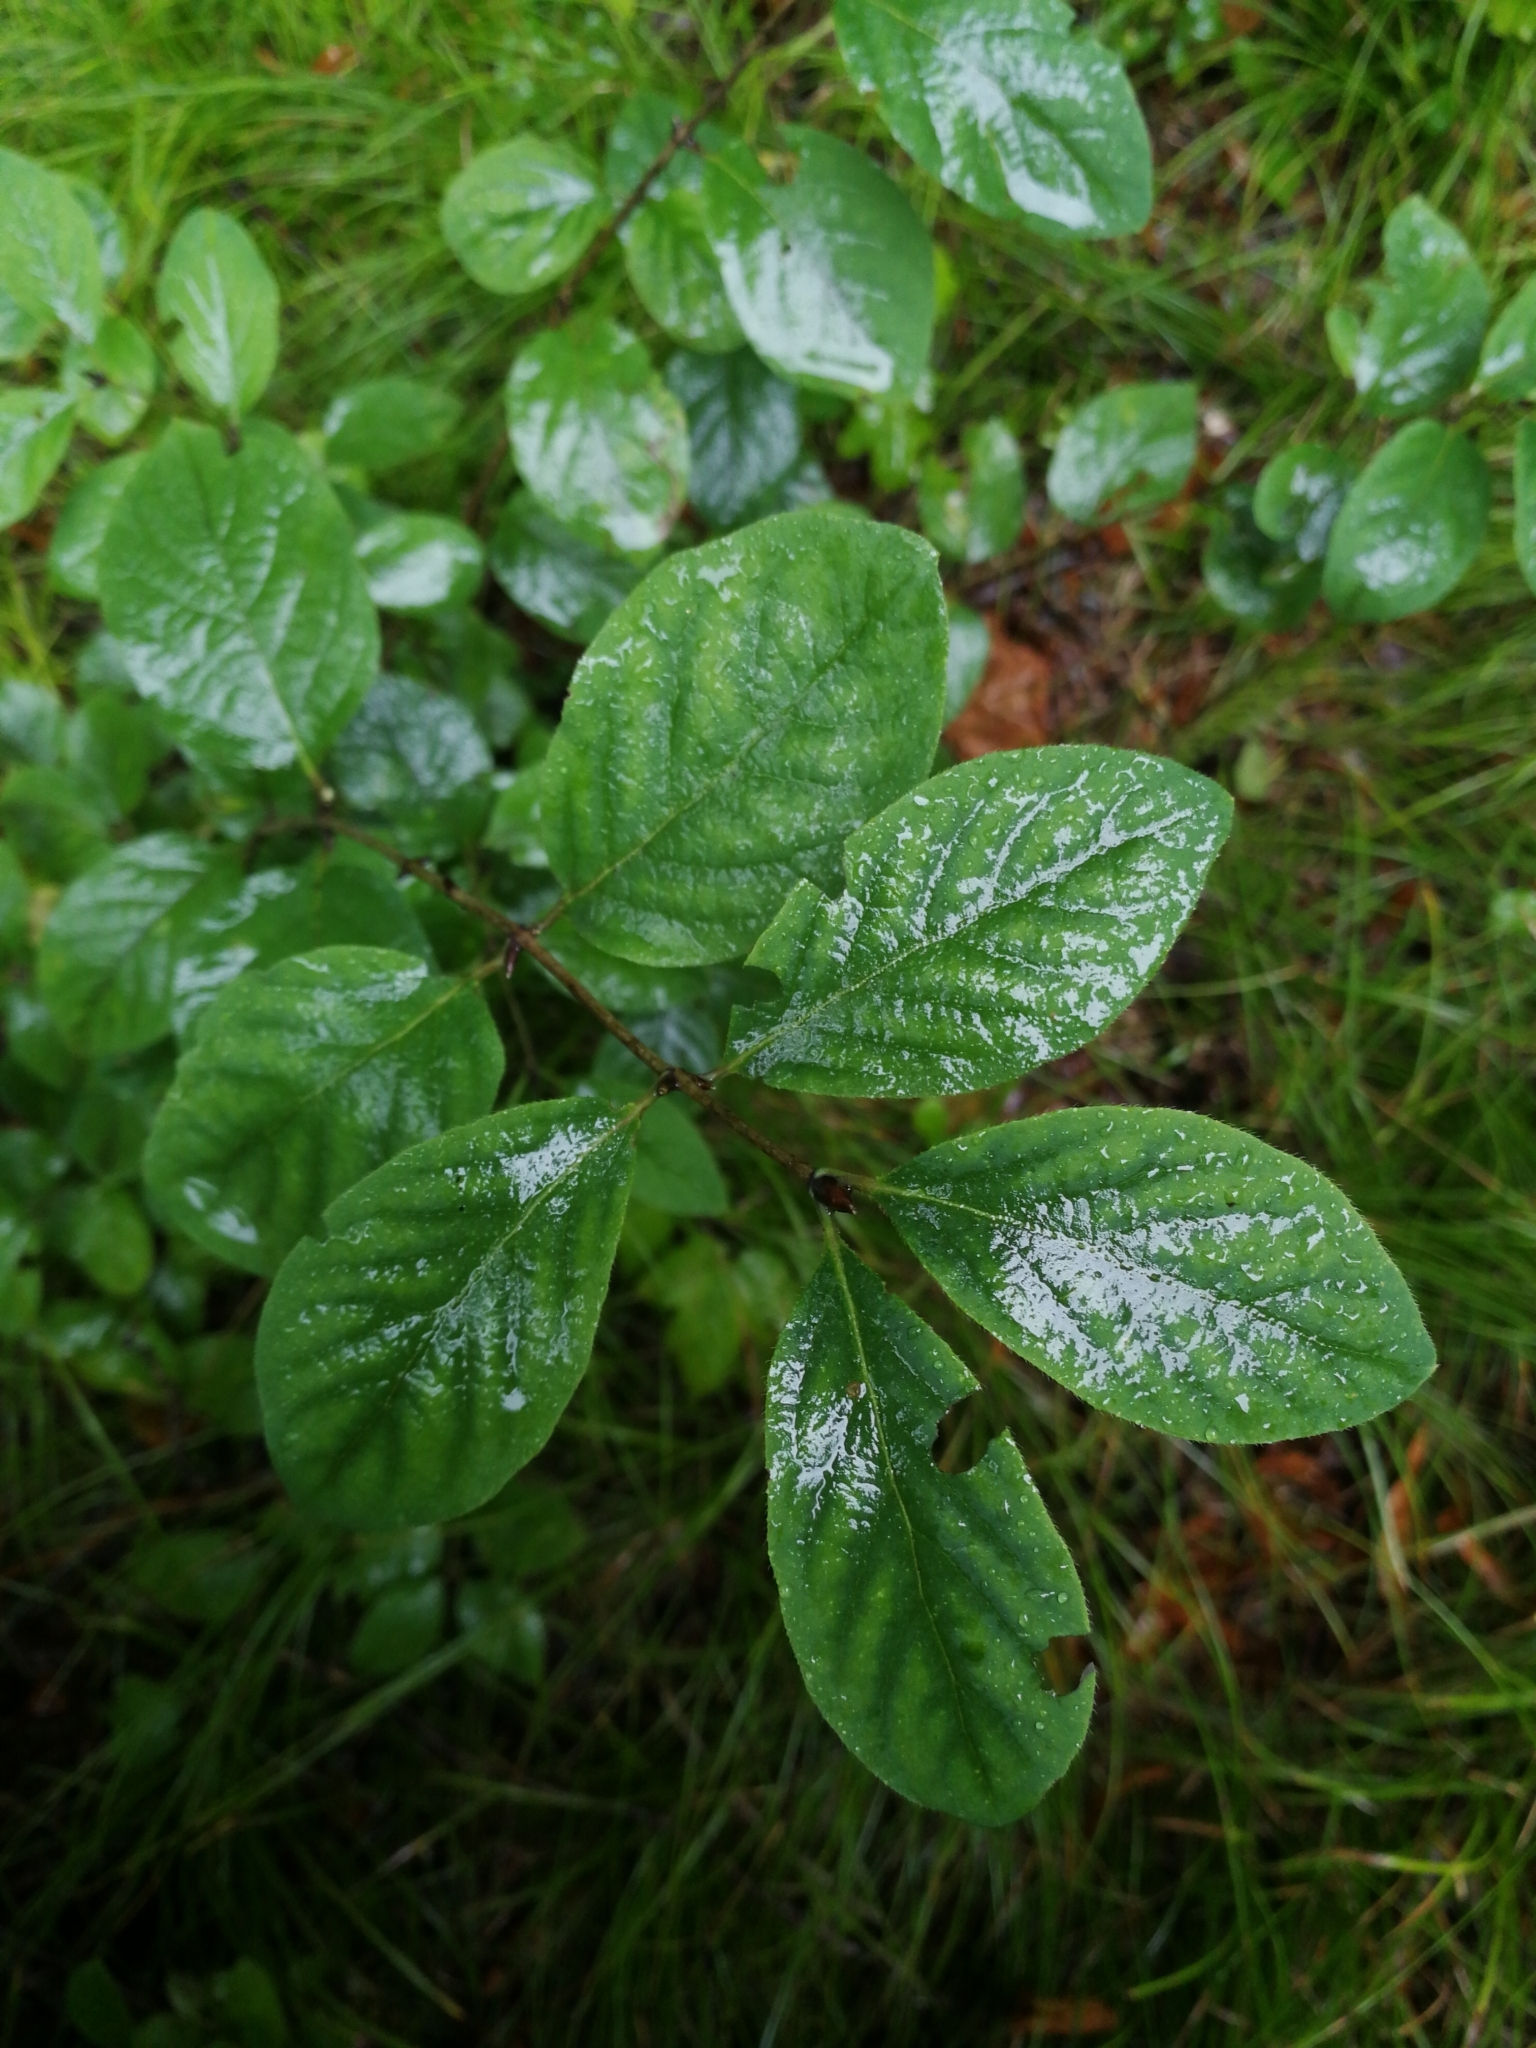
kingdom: Plantae
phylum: Tracheophyta
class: Magnoliopsida
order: Dipsacales
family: Caprifoliaceae
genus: Lonicera
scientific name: Lonicera xylosteum
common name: Fly honeysuckle
